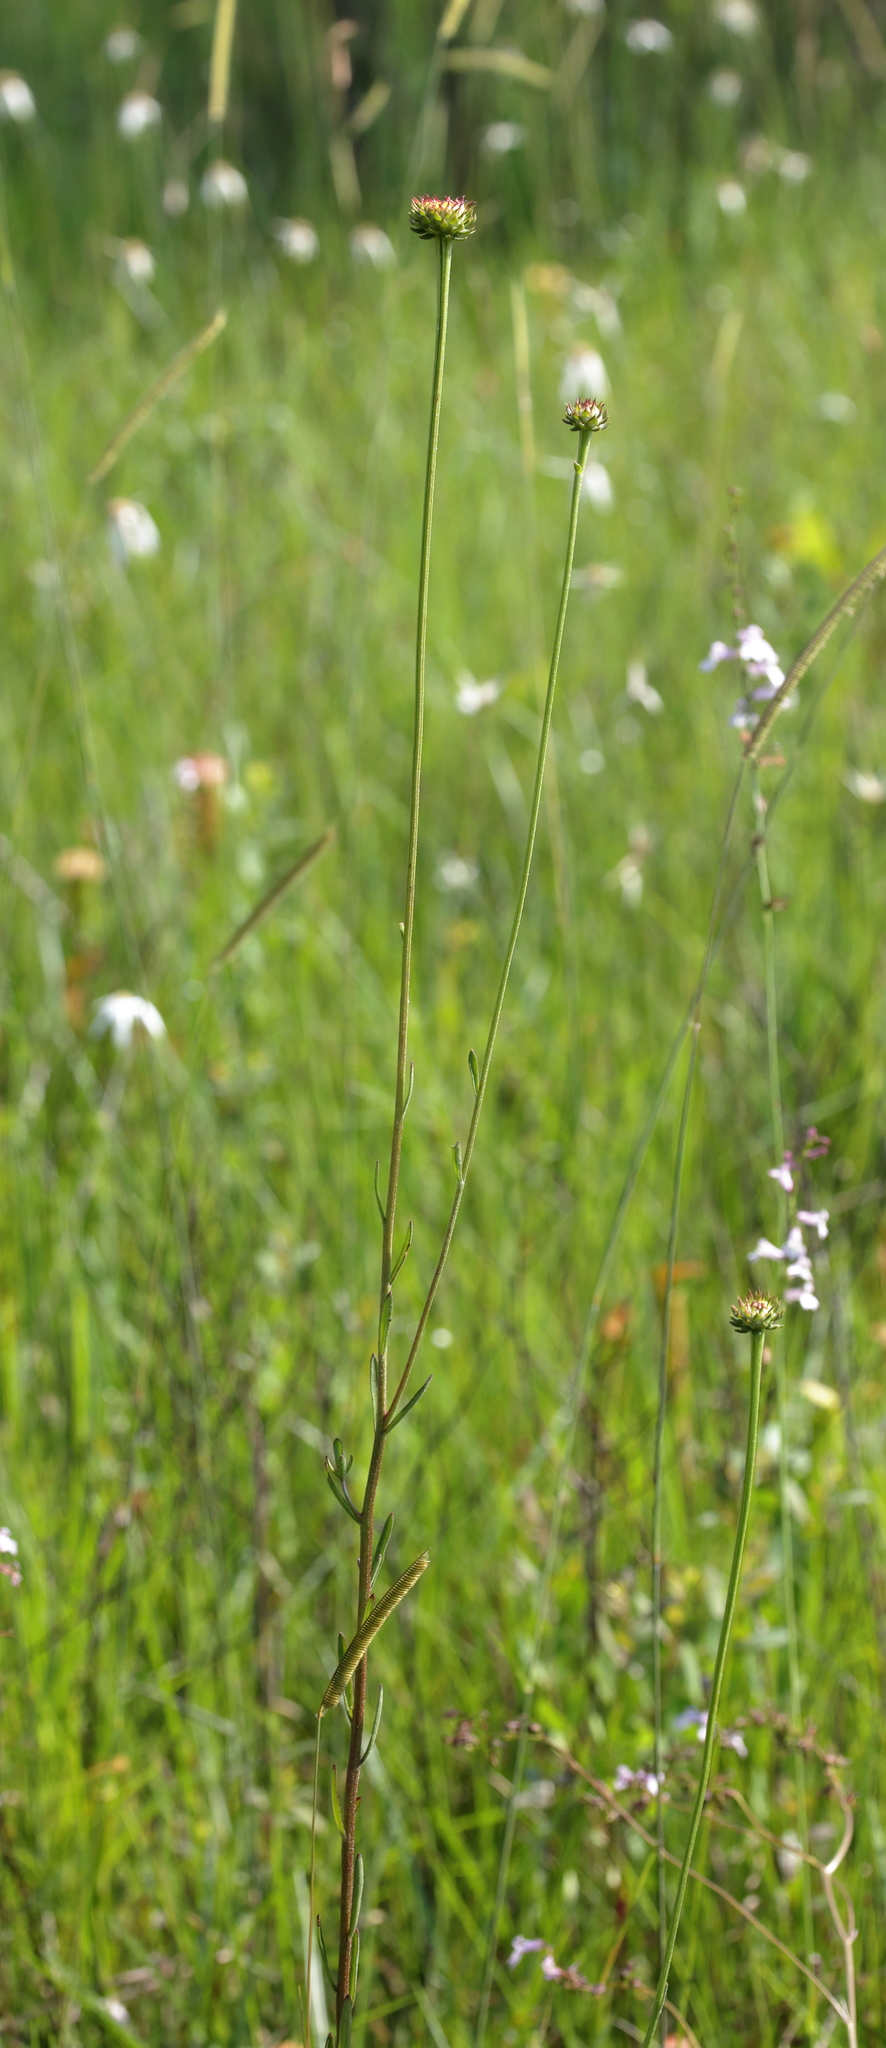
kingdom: Plantae
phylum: Tracheophyta
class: Magnoliopsida
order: Asterales
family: Asteraceae
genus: Balduina
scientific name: Balduina uniflora
